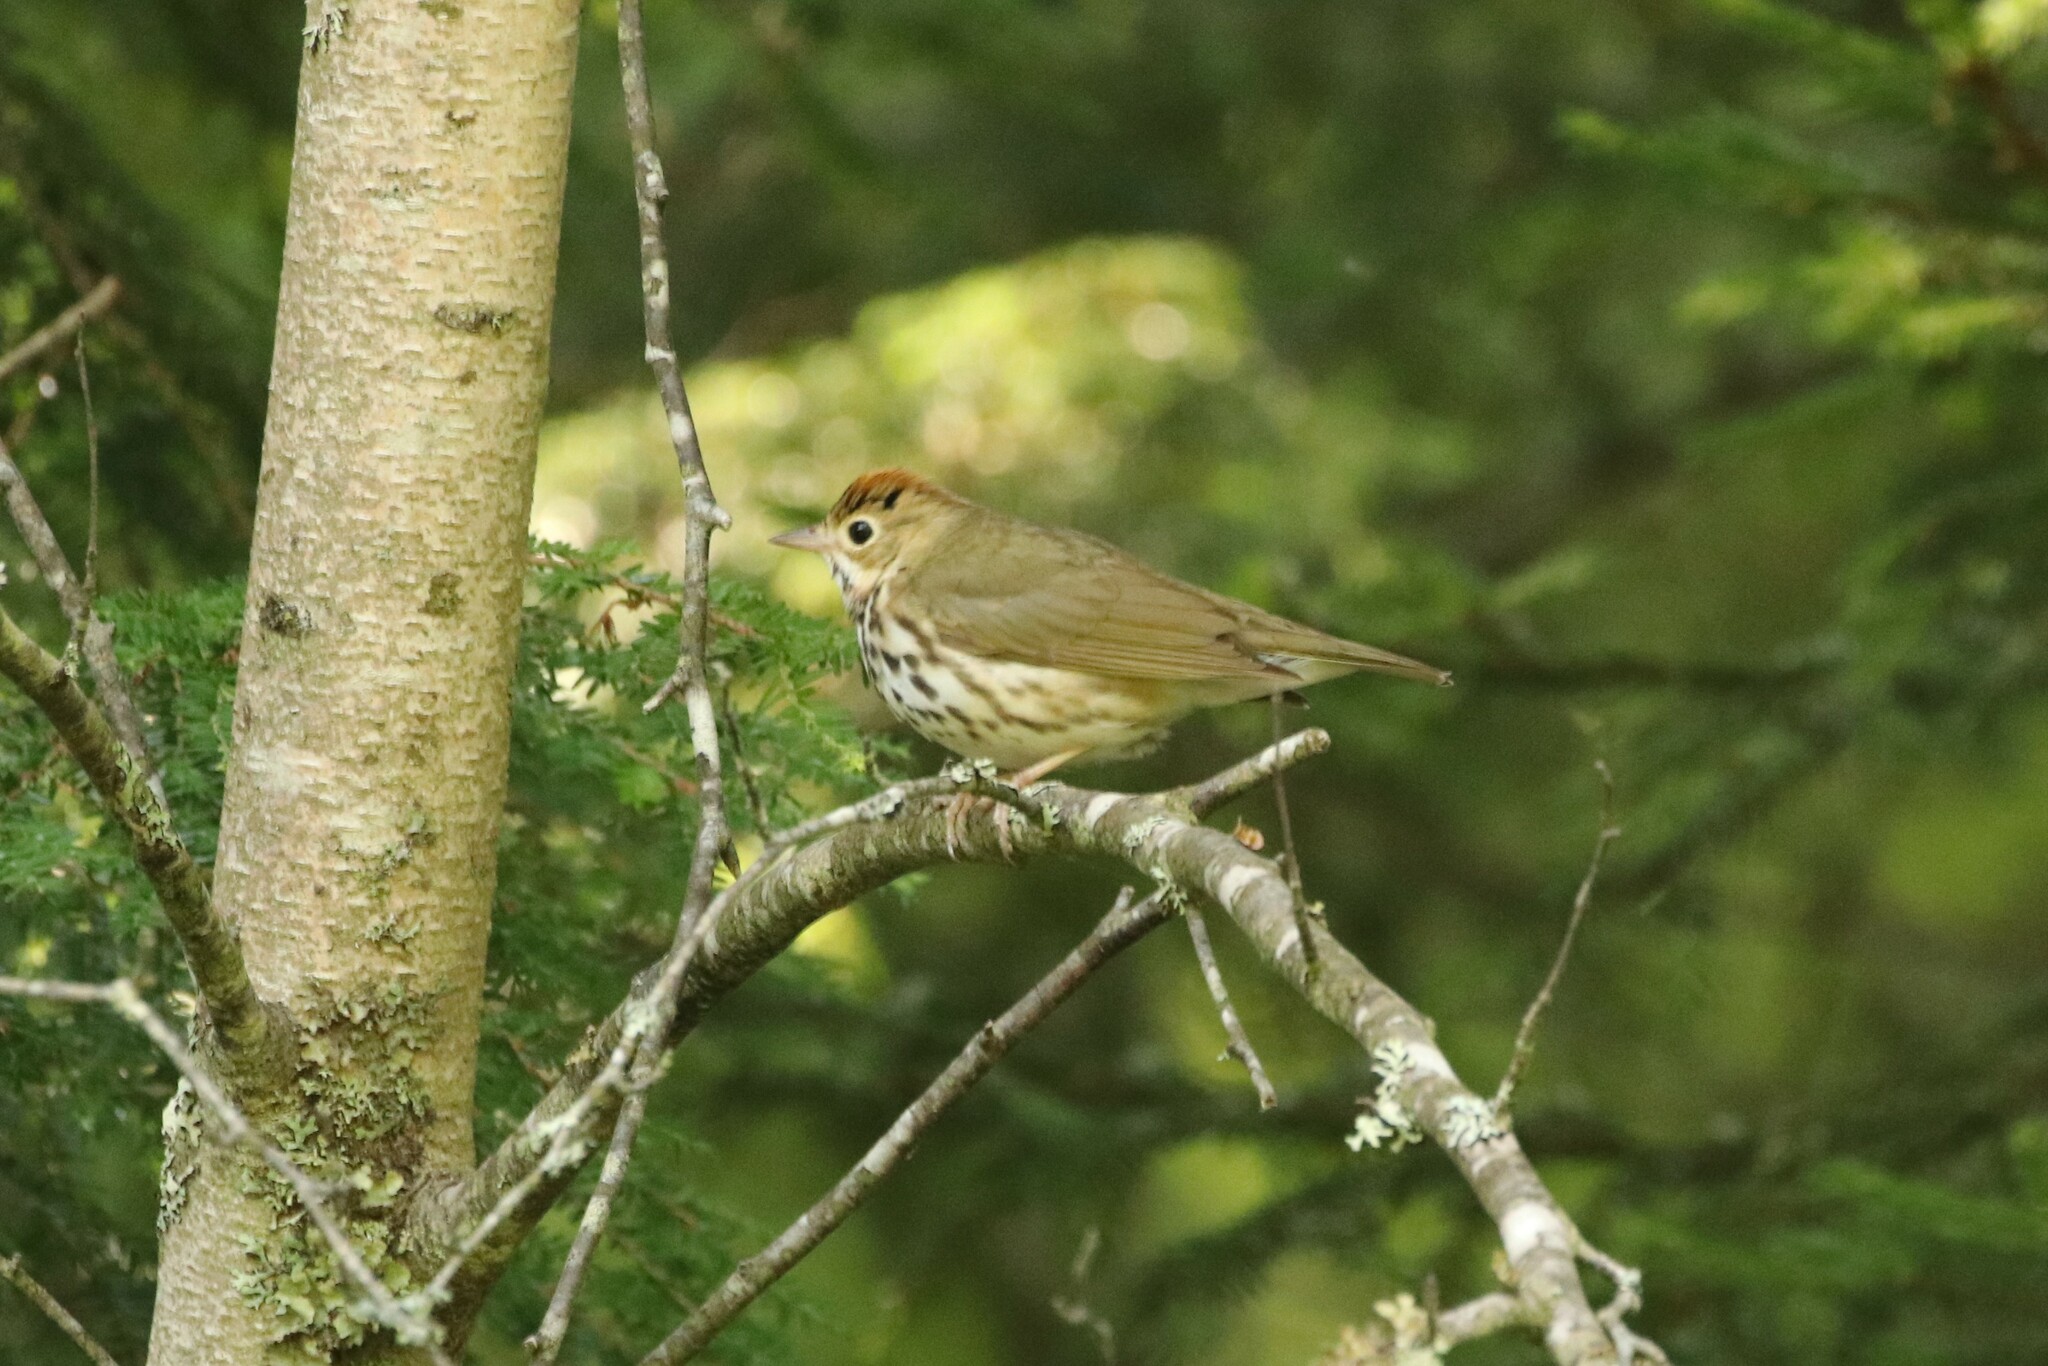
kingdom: Animalia
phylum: Chordata
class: Aves
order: Passeriformes
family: Parulidae
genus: Seiurus
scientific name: Seiurus aurocapilla
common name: Ovenbird
